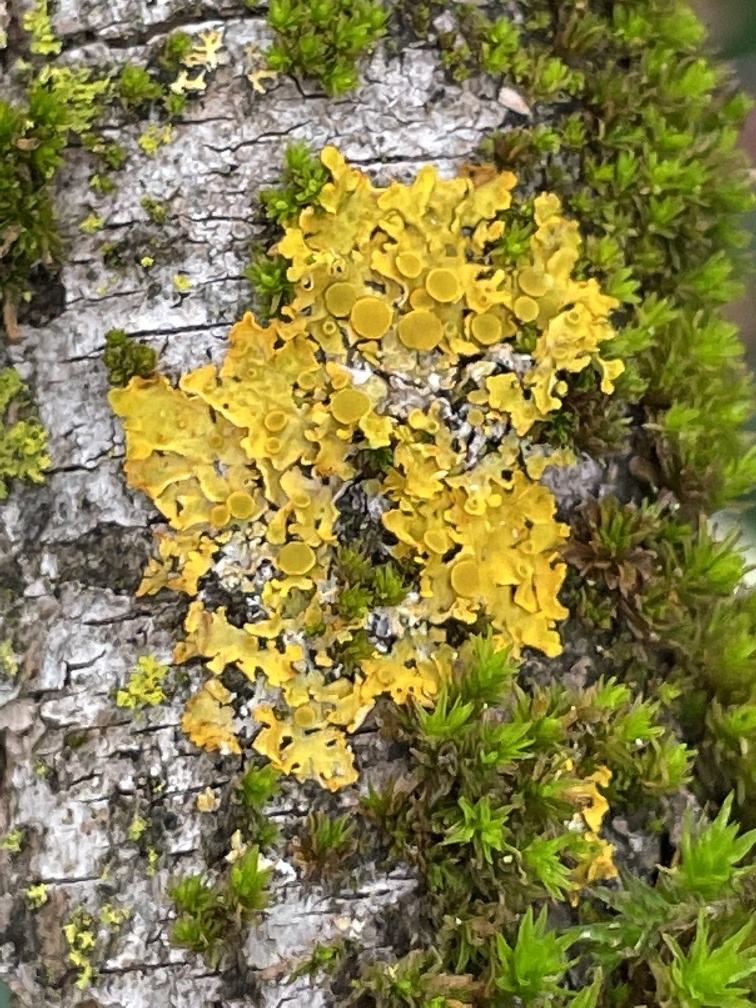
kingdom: Fungi
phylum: Ascomycota
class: Lecanoromycetes
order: Teloschistales
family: Teloschistaceae
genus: Xanthoria
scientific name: Xanthoria parietina
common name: Common orange lichen
